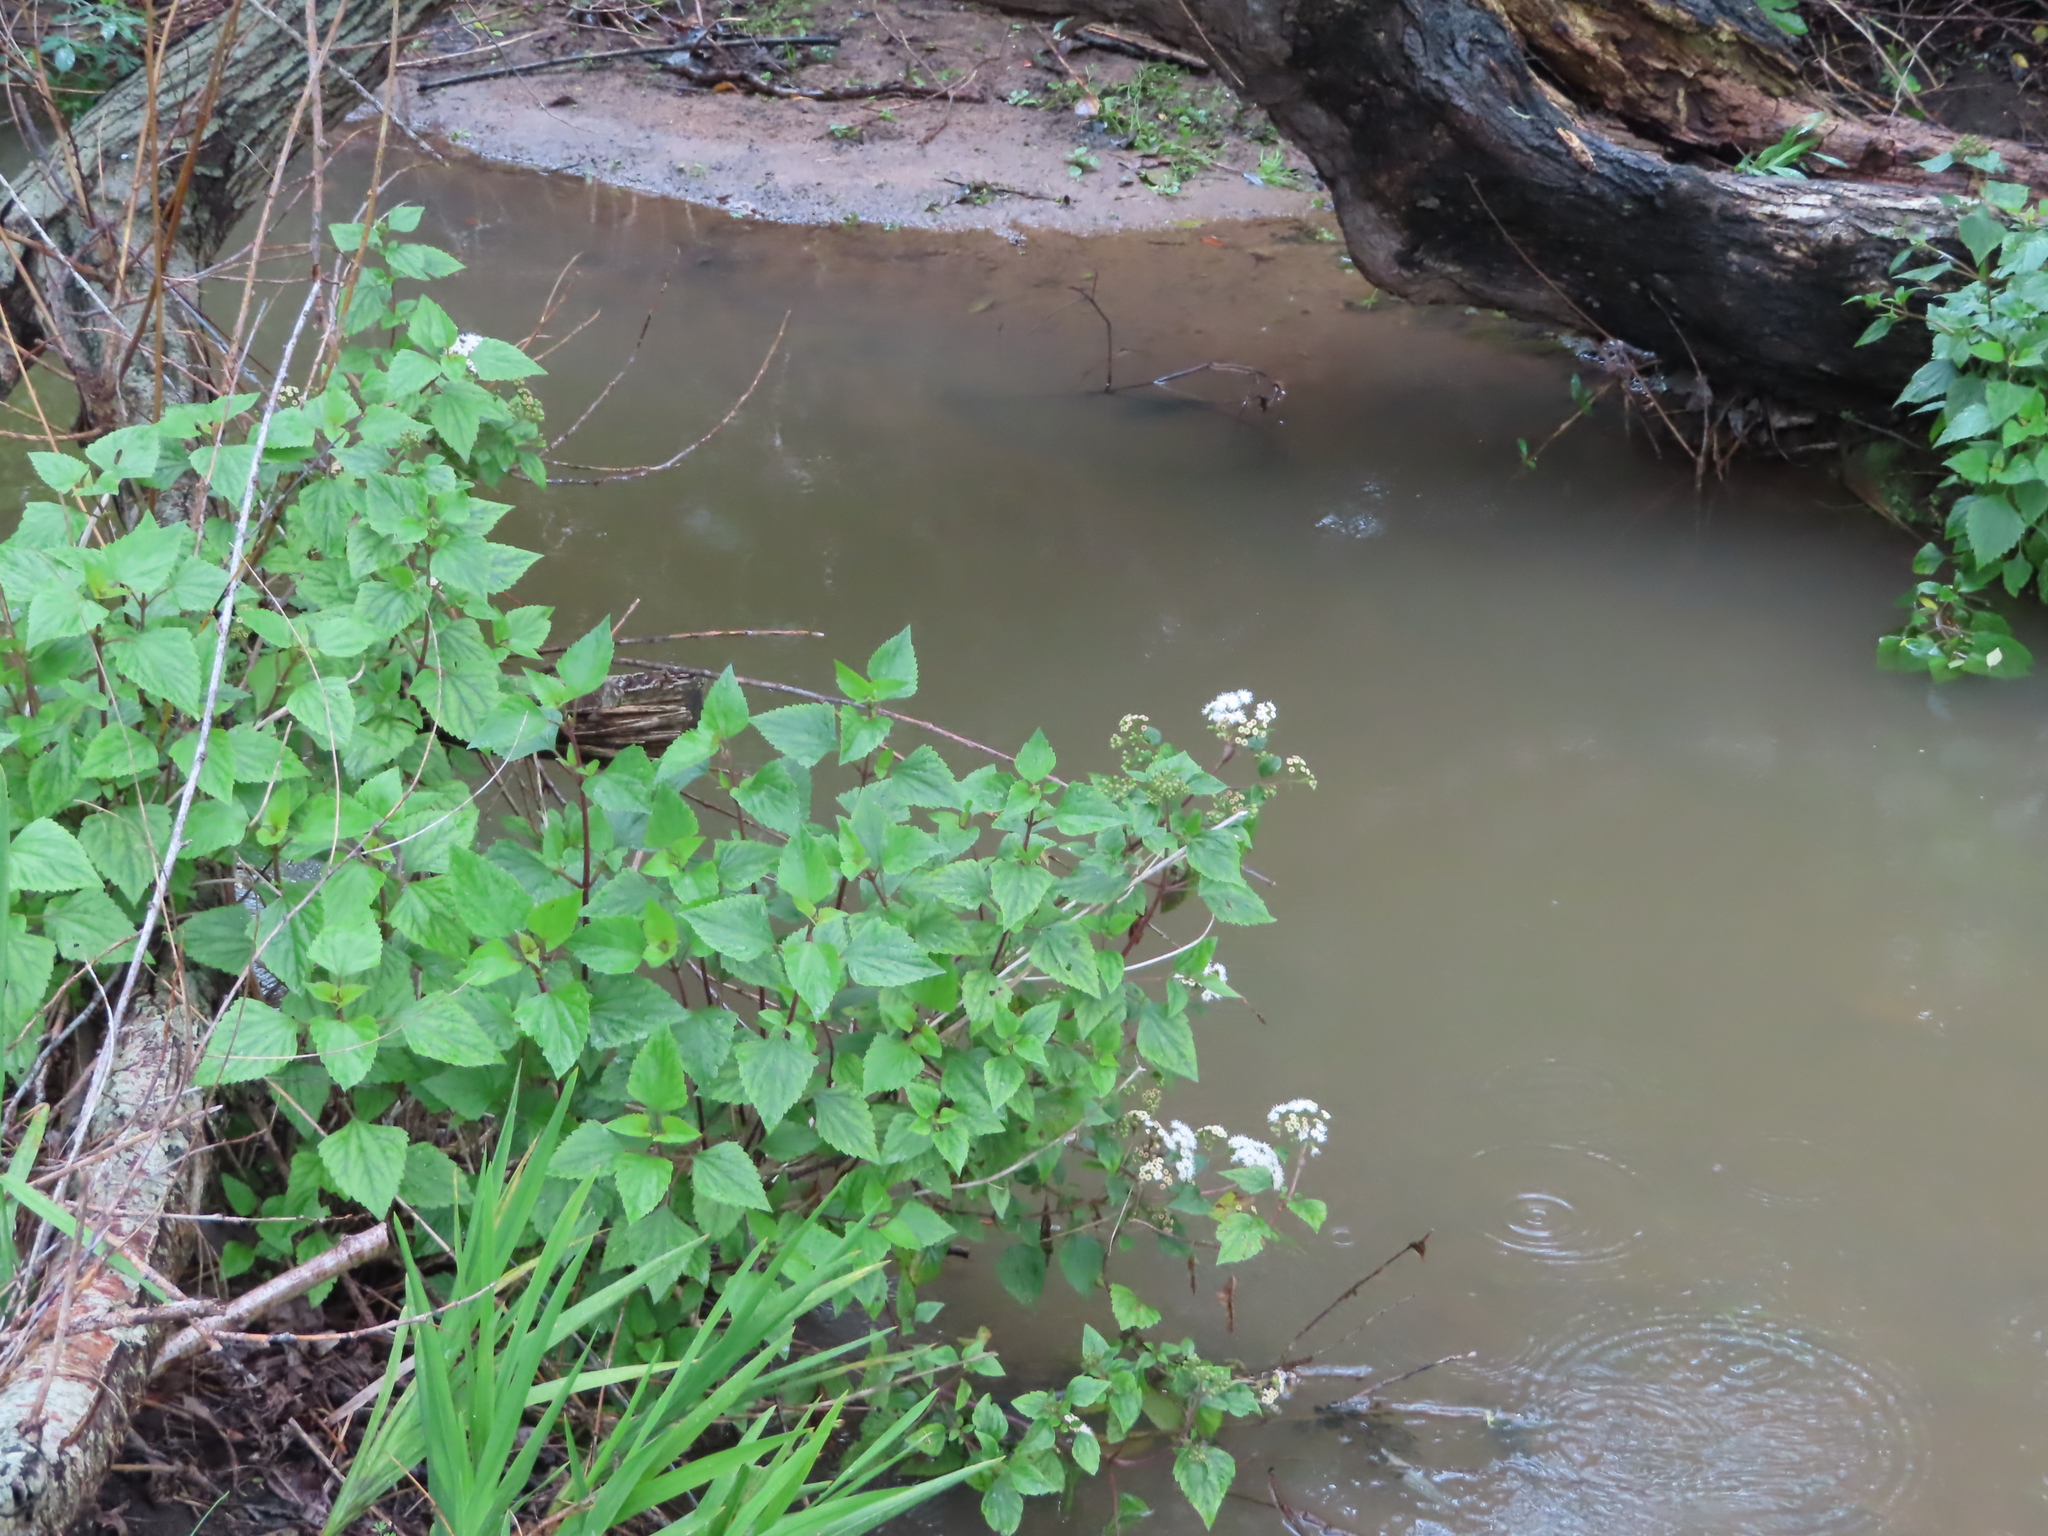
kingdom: Plantae
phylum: Tracheophyta
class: Magnoliopsida
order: Asterales
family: Asteraceae
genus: Ageratina
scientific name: Ageratina adenophora
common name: Sticky snakeroot
